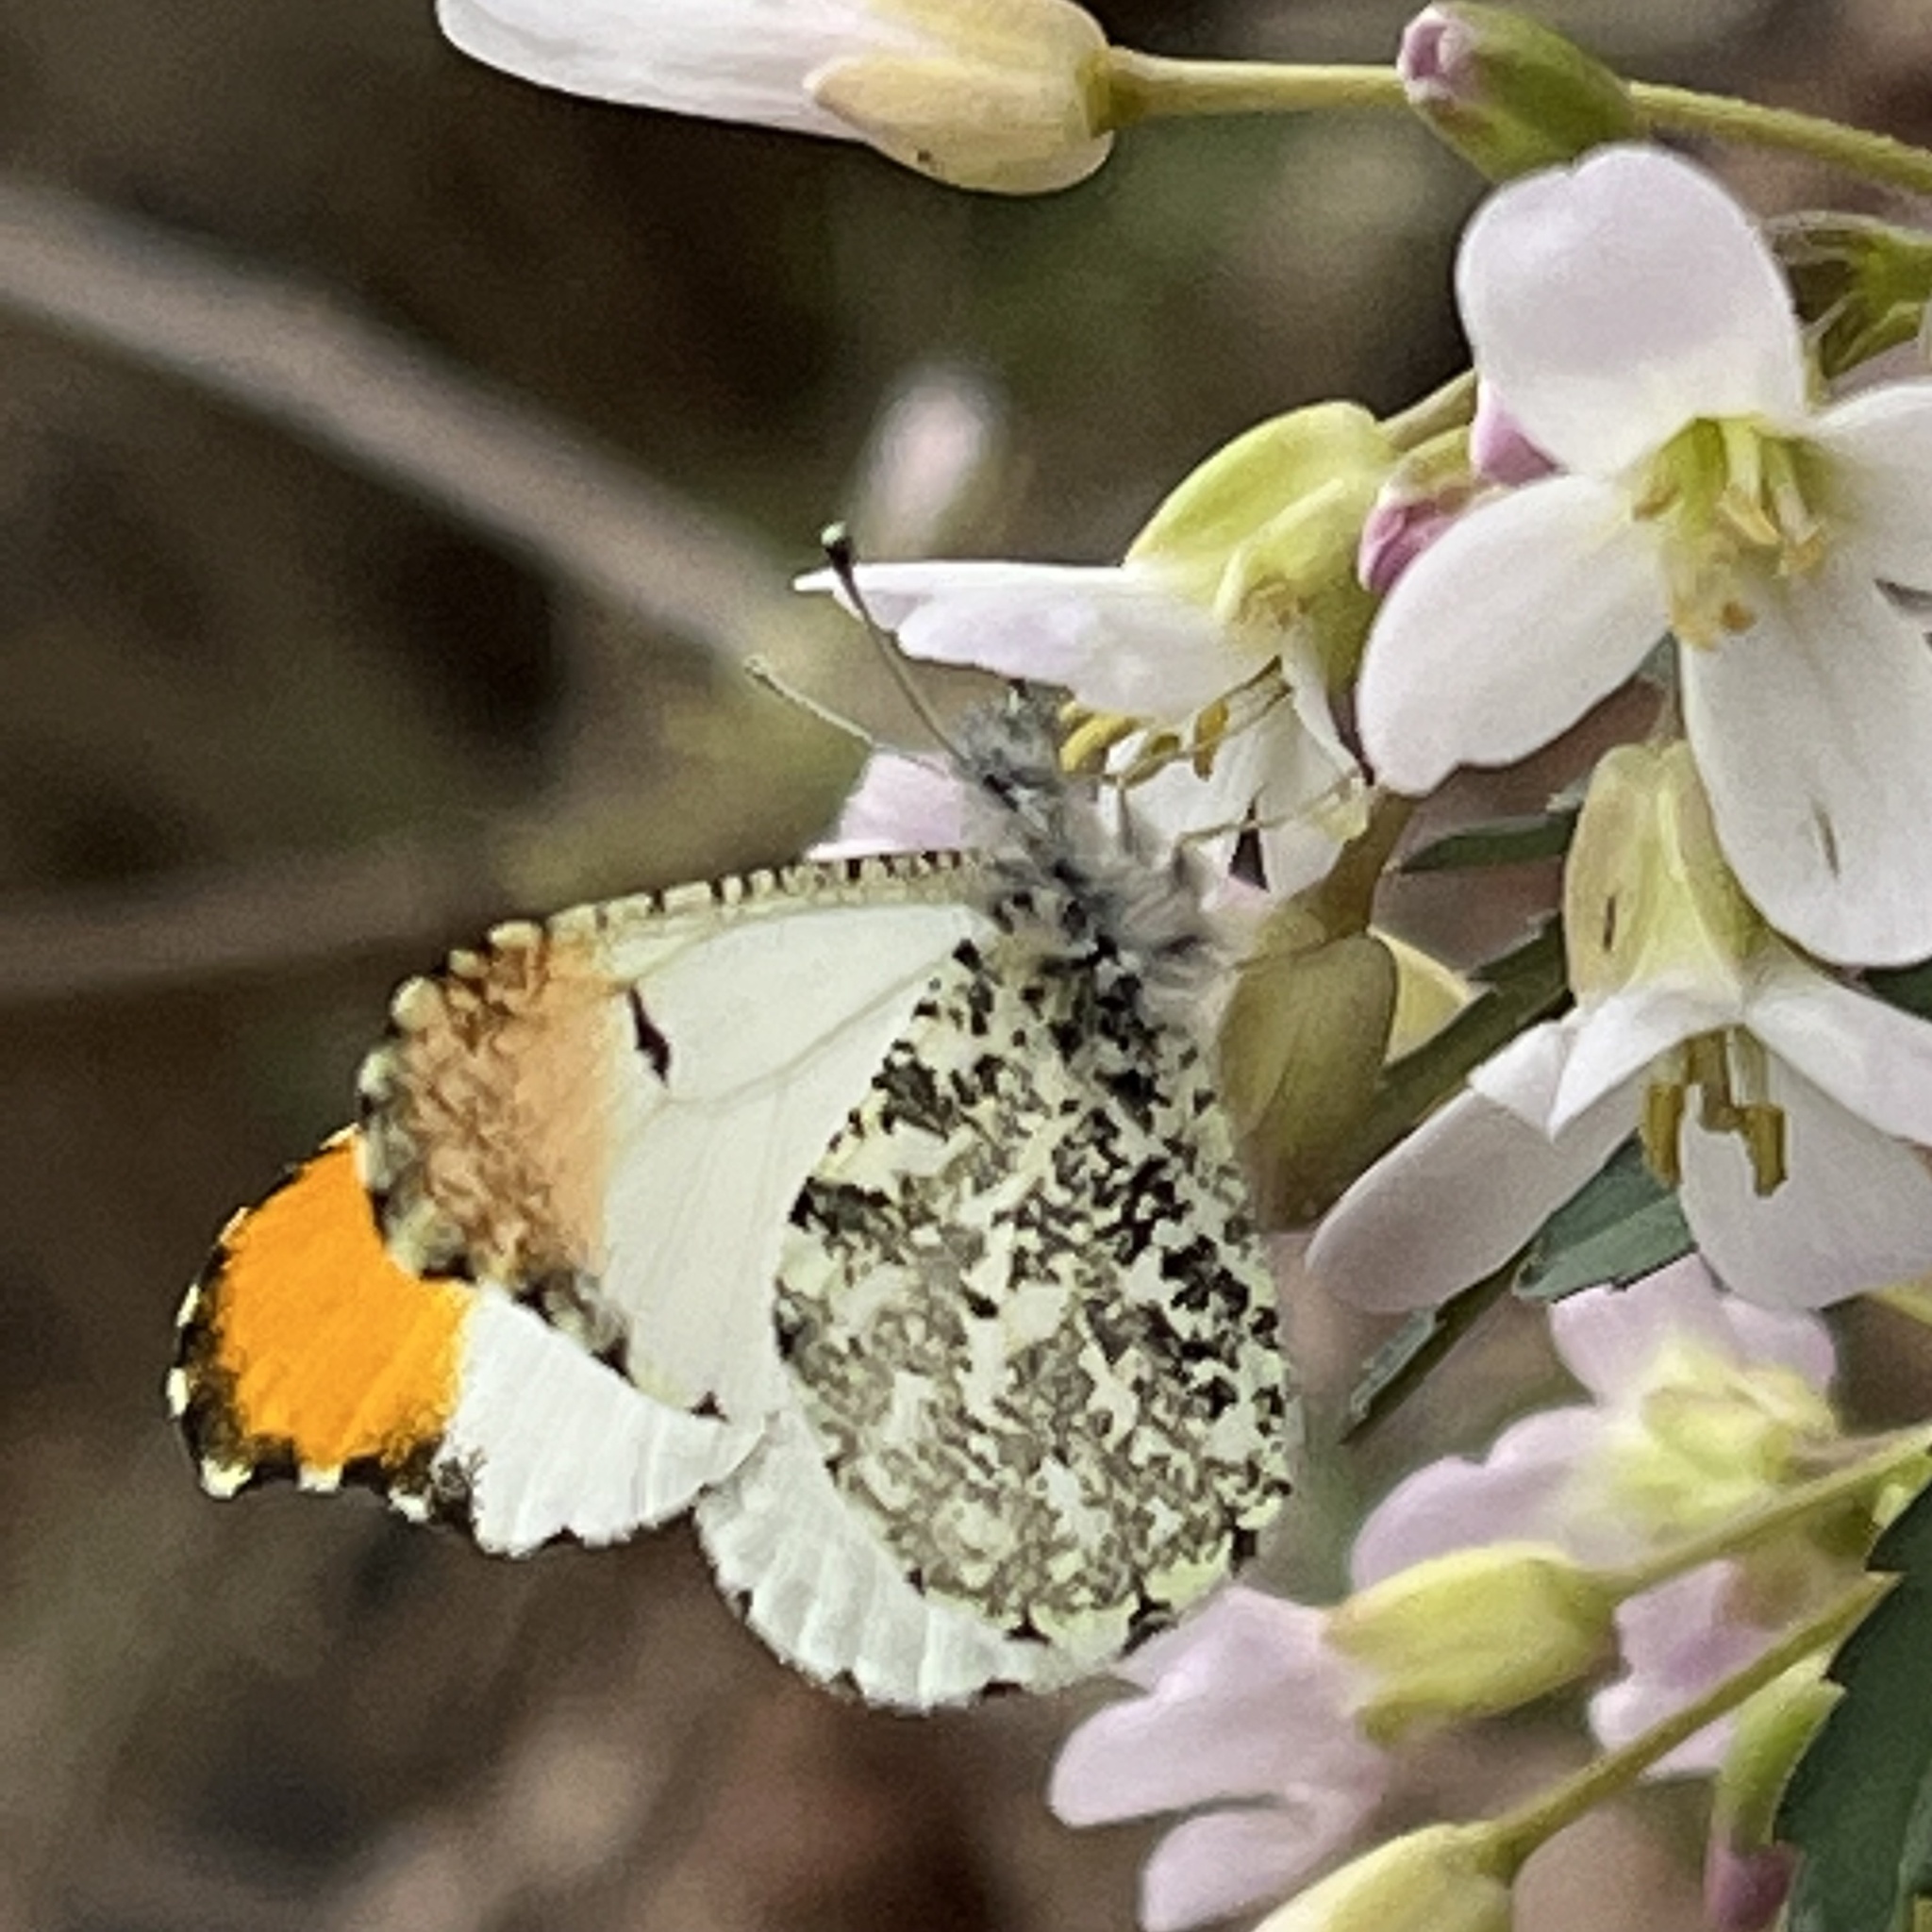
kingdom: Animalia
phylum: Arthropoda
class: Insecta
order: Lepidoptera
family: Pieridae
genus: Anthocharis
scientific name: Anthocharis midea
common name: Falcate orangetip
